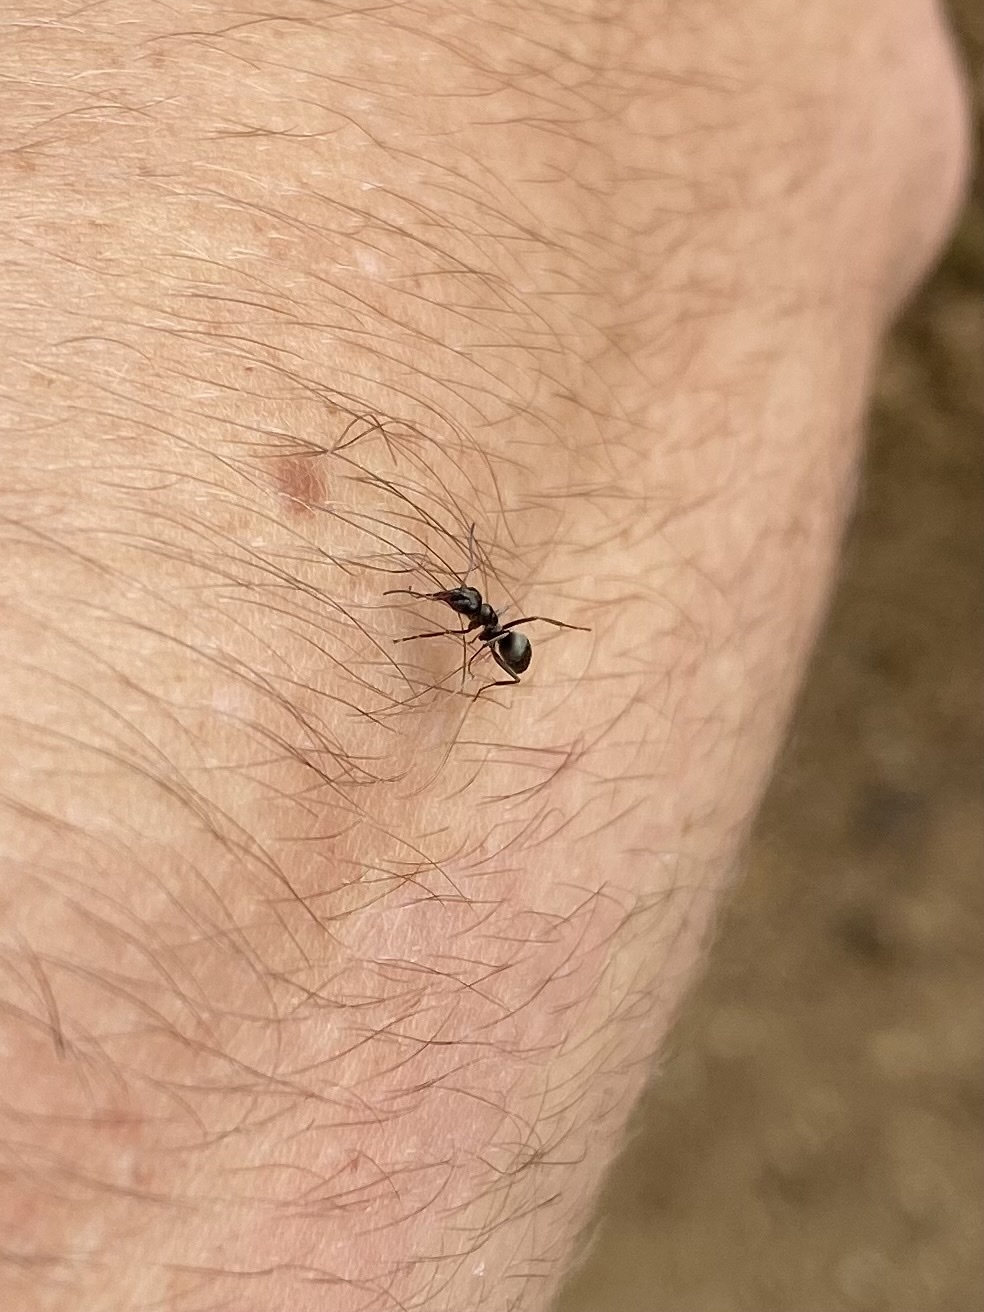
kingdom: Animalia
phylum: Arthropoda
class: Insecta
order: Hymenoptera
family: Formicidae
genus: Formica
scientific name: Formica
